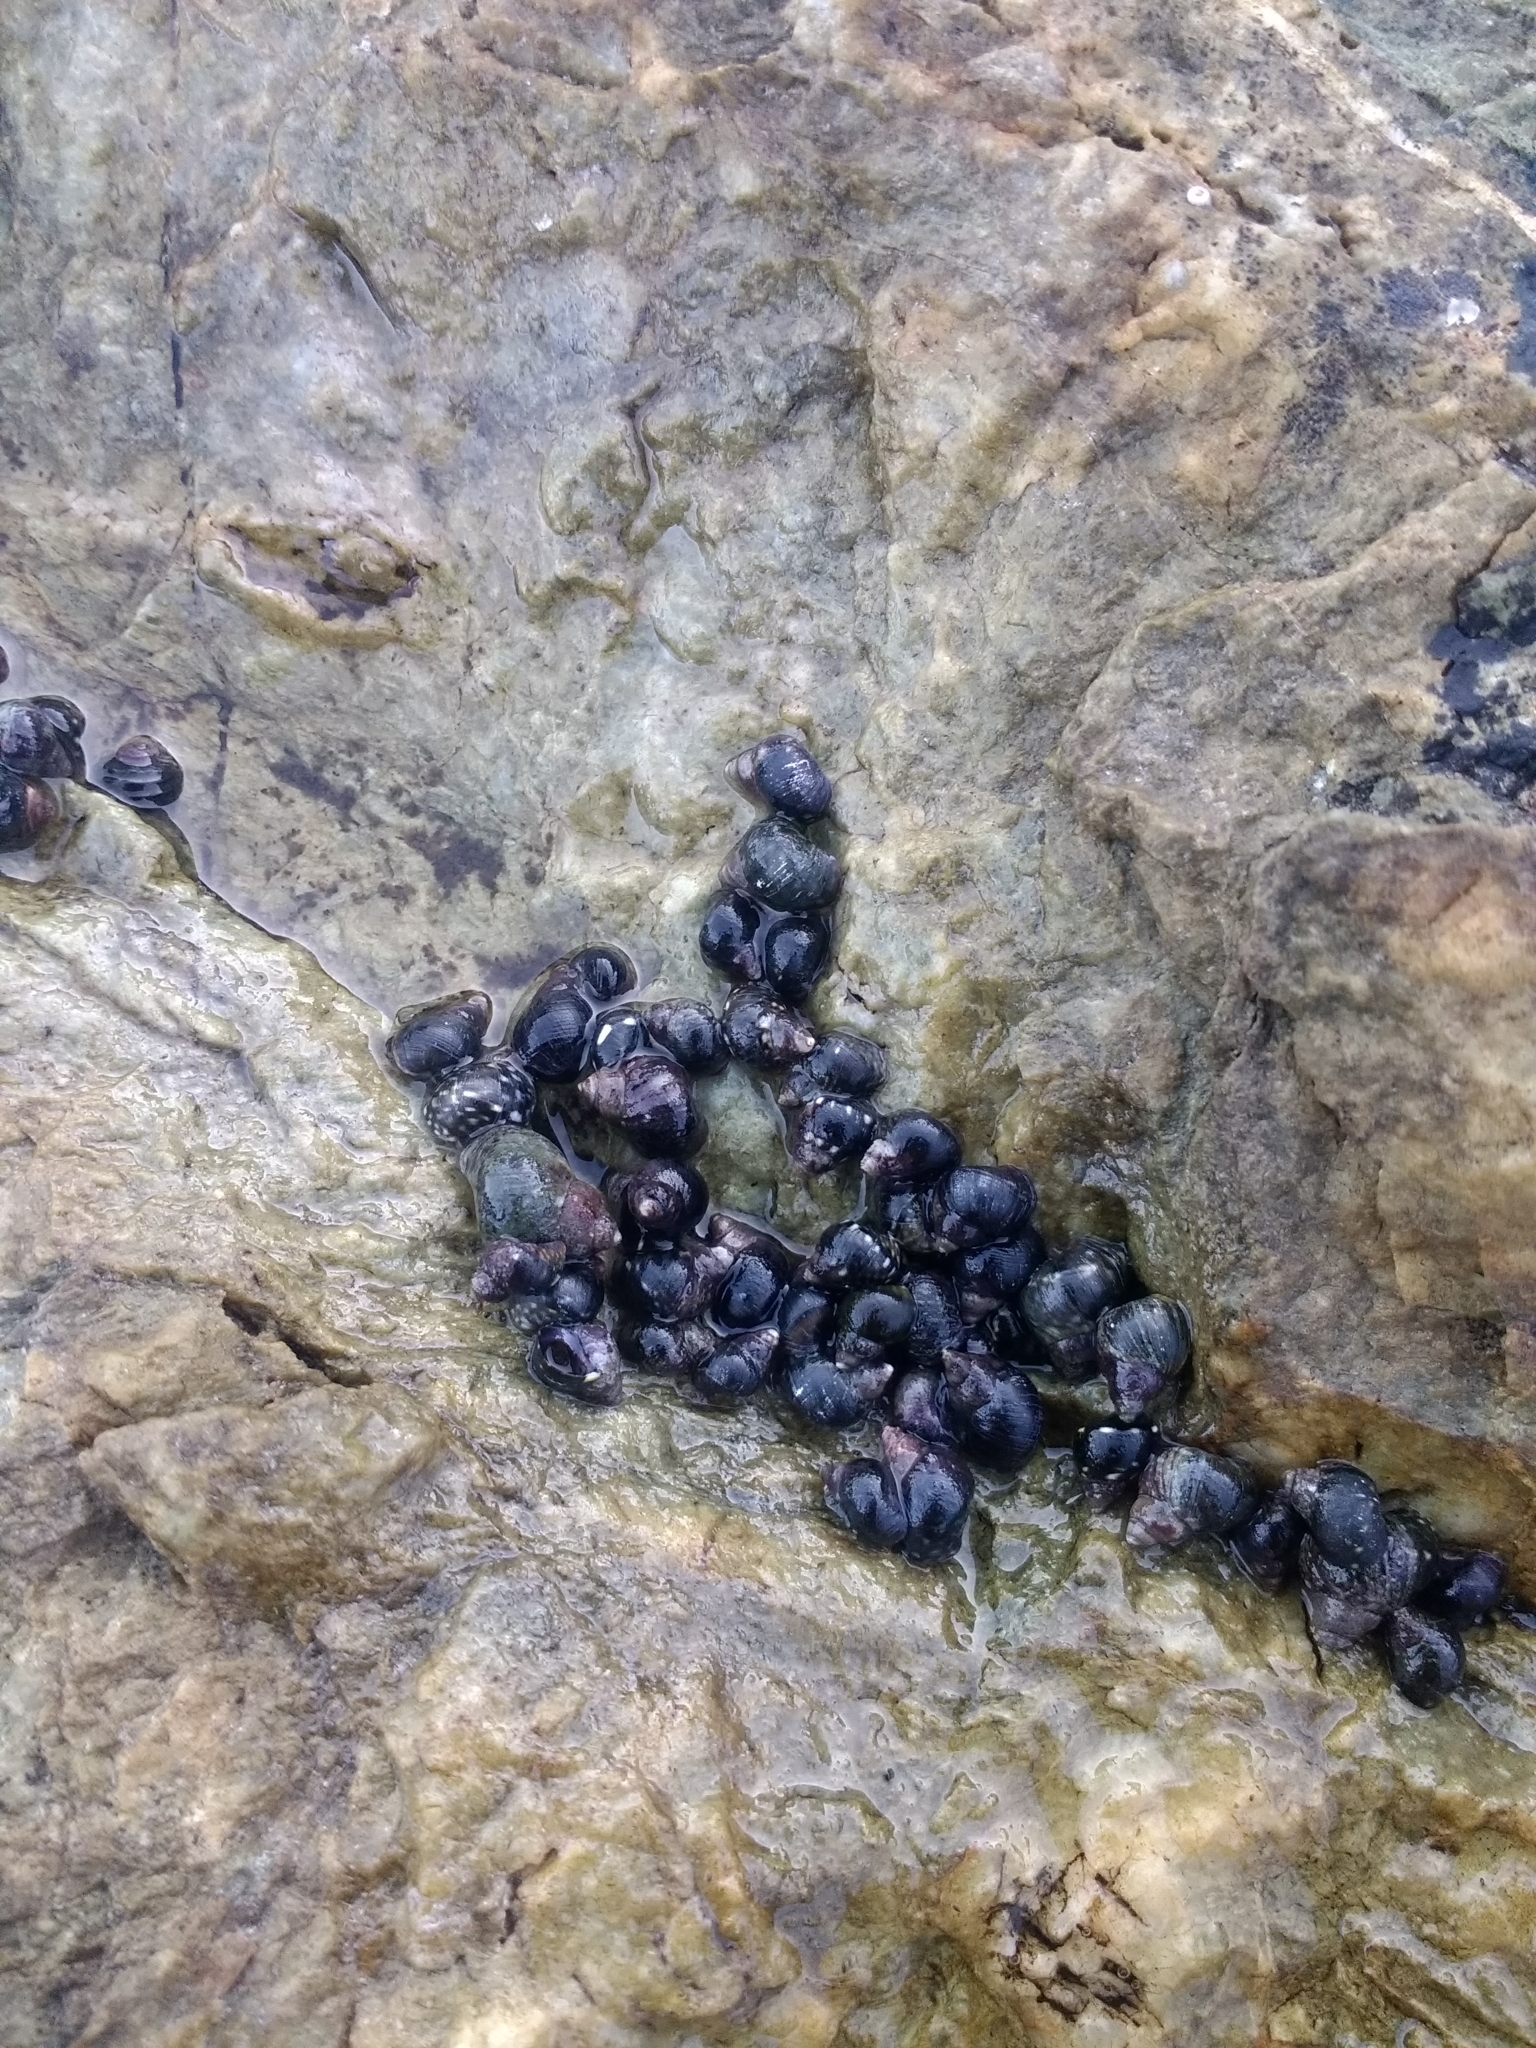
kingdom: Animalia
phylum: Mollusca
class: Gastropoda
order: Littorinimorpha
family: Littorinidae
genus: Littorina
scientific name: Littorina scutulata
